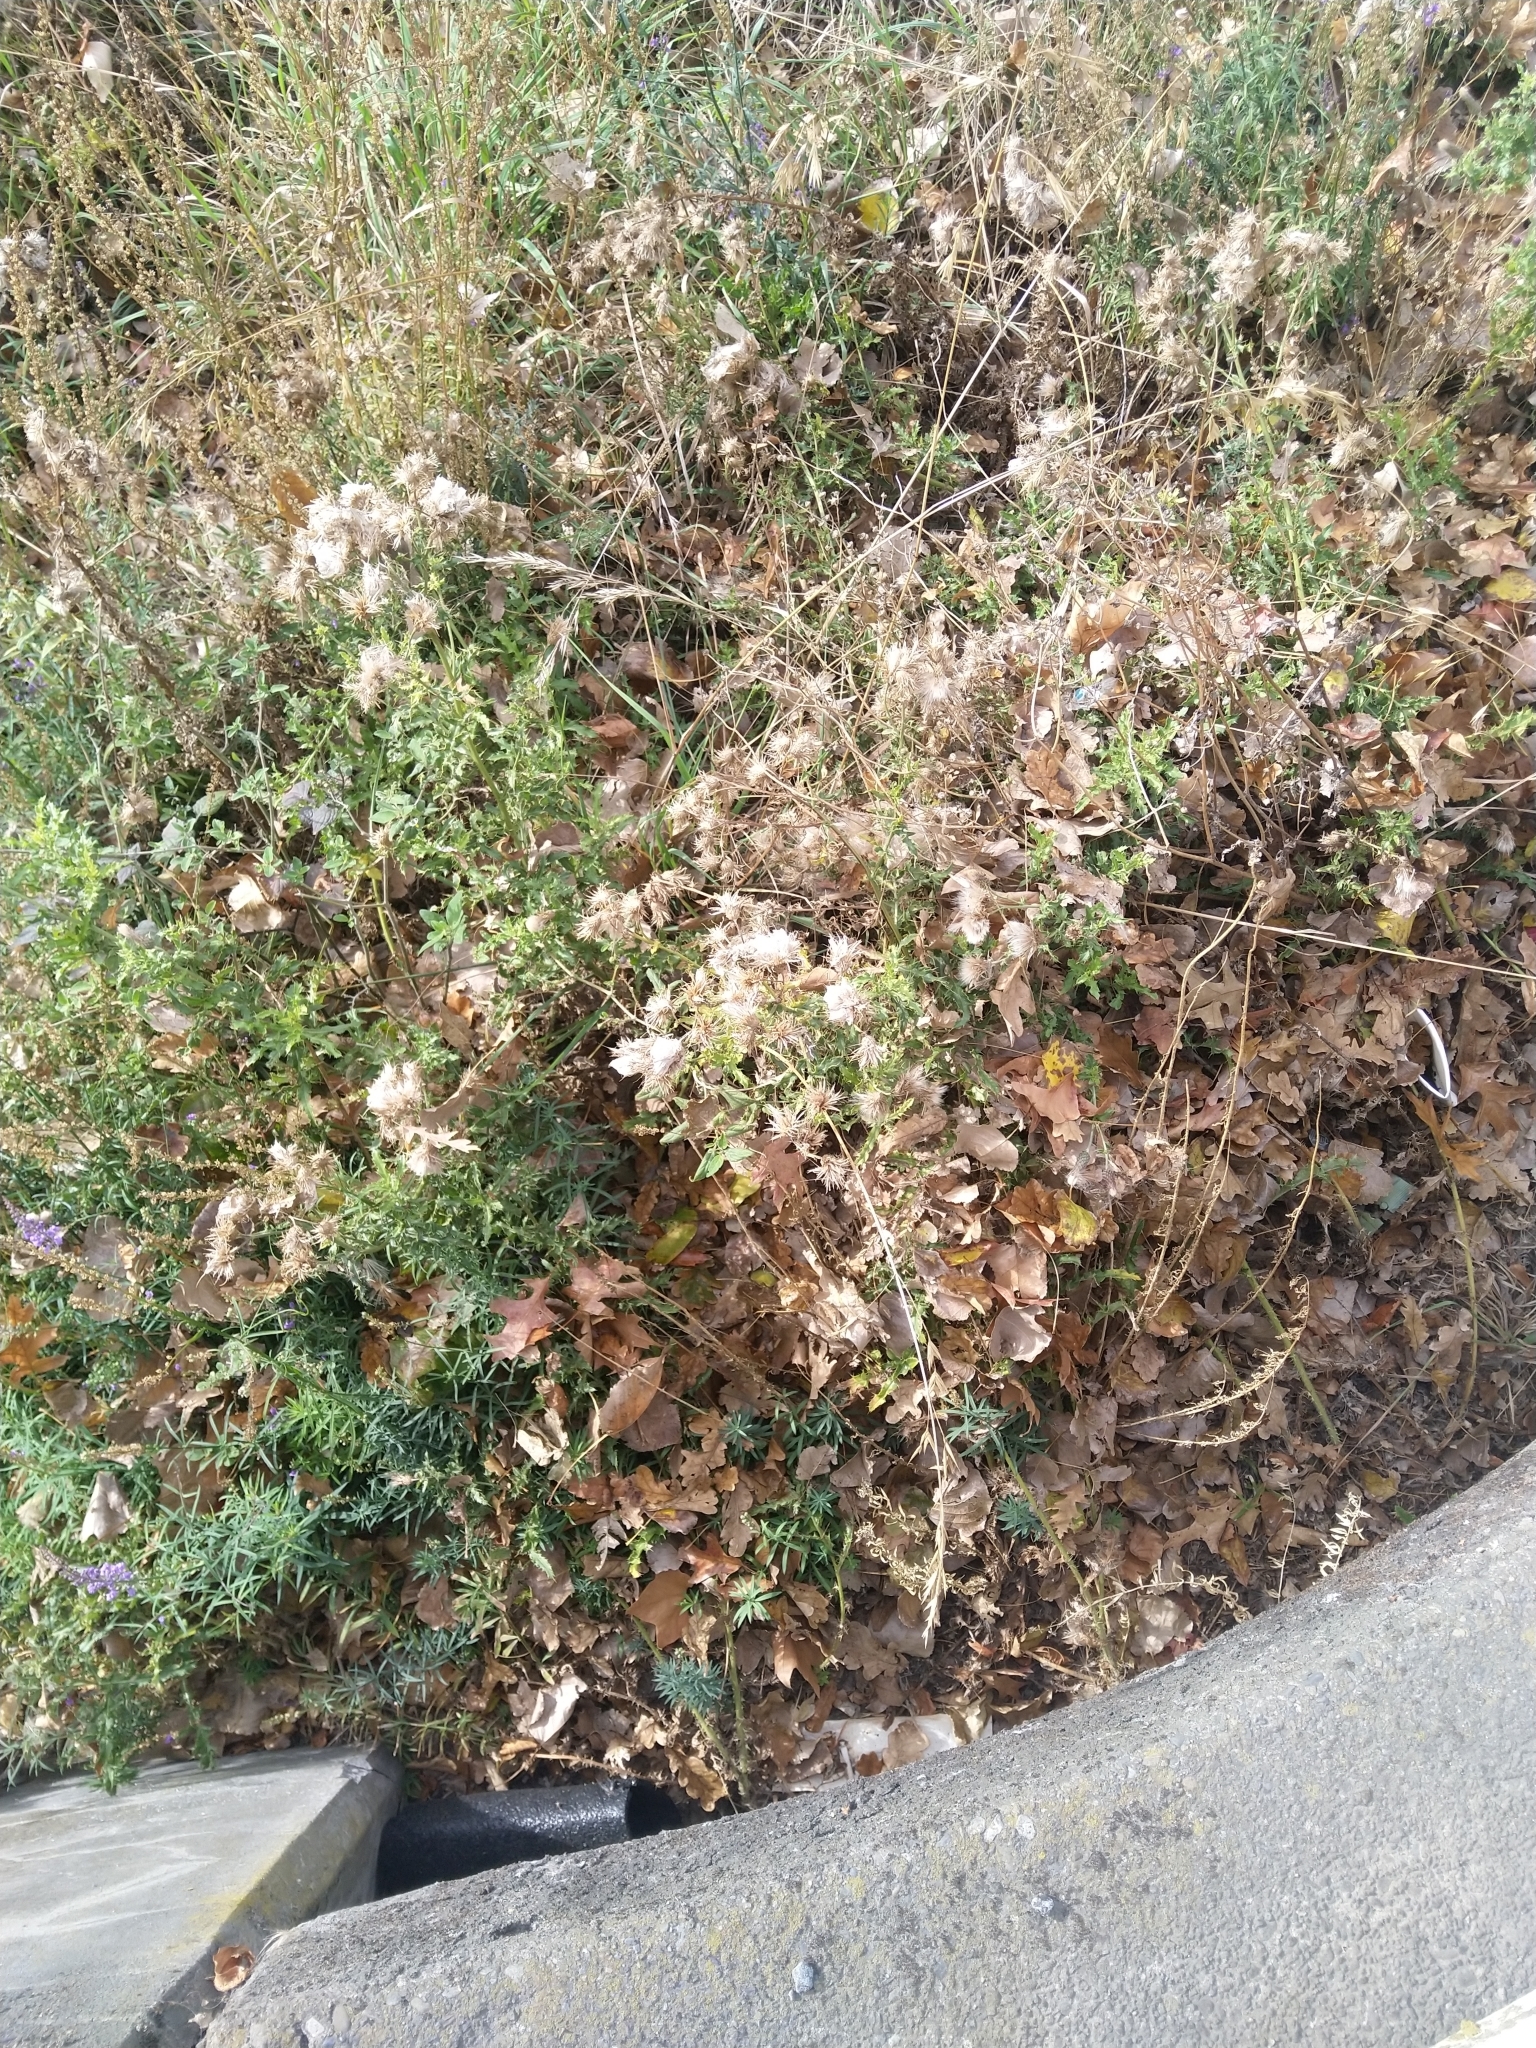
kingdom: Plantae
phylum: Tracheophyta
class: Magnoliopsida
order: Asterales
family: Asteraceae
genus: Cirsium
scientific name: Cirsium arvense
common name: Creeping thistle
